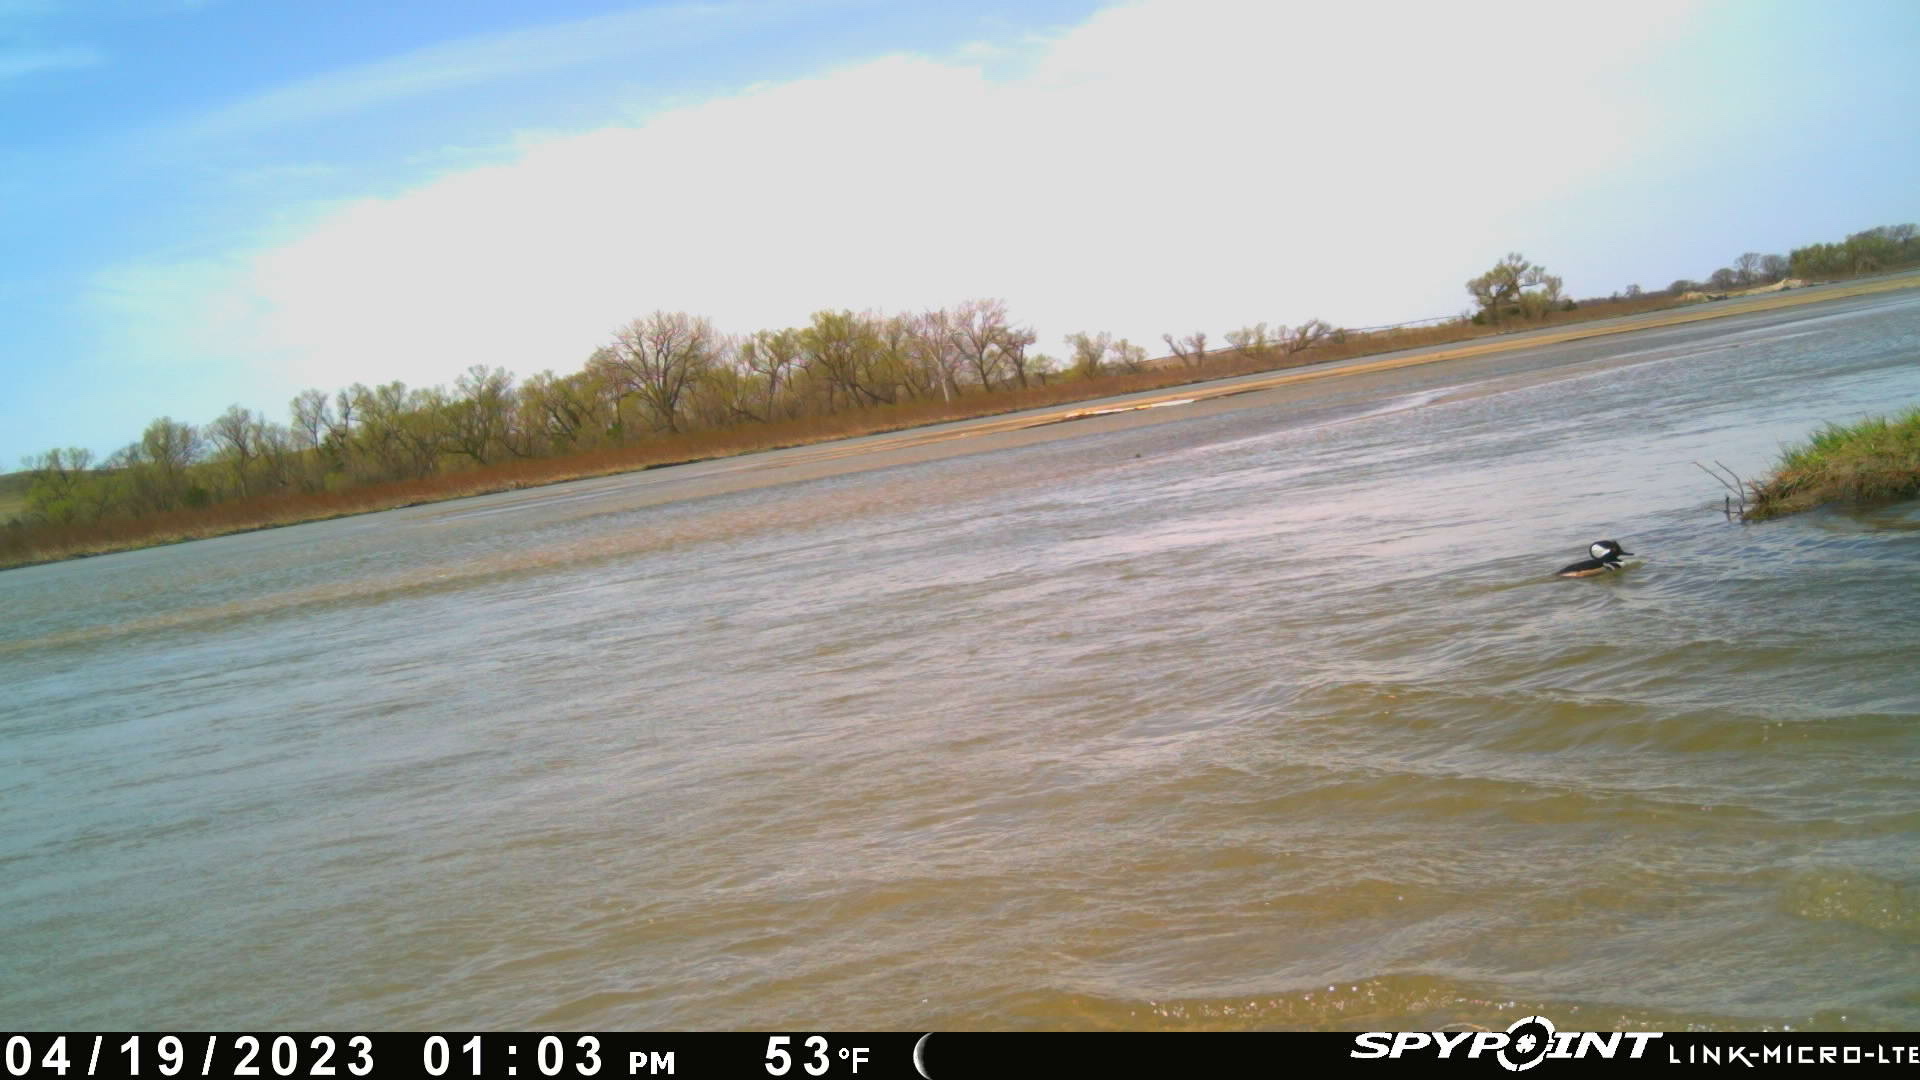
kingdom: Animalia
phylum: Chordata
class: Aves
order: Anseriformes
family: Anatidae
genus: Lophodytes
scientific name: Lophodytes cucullatus
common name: Hooded merganser
